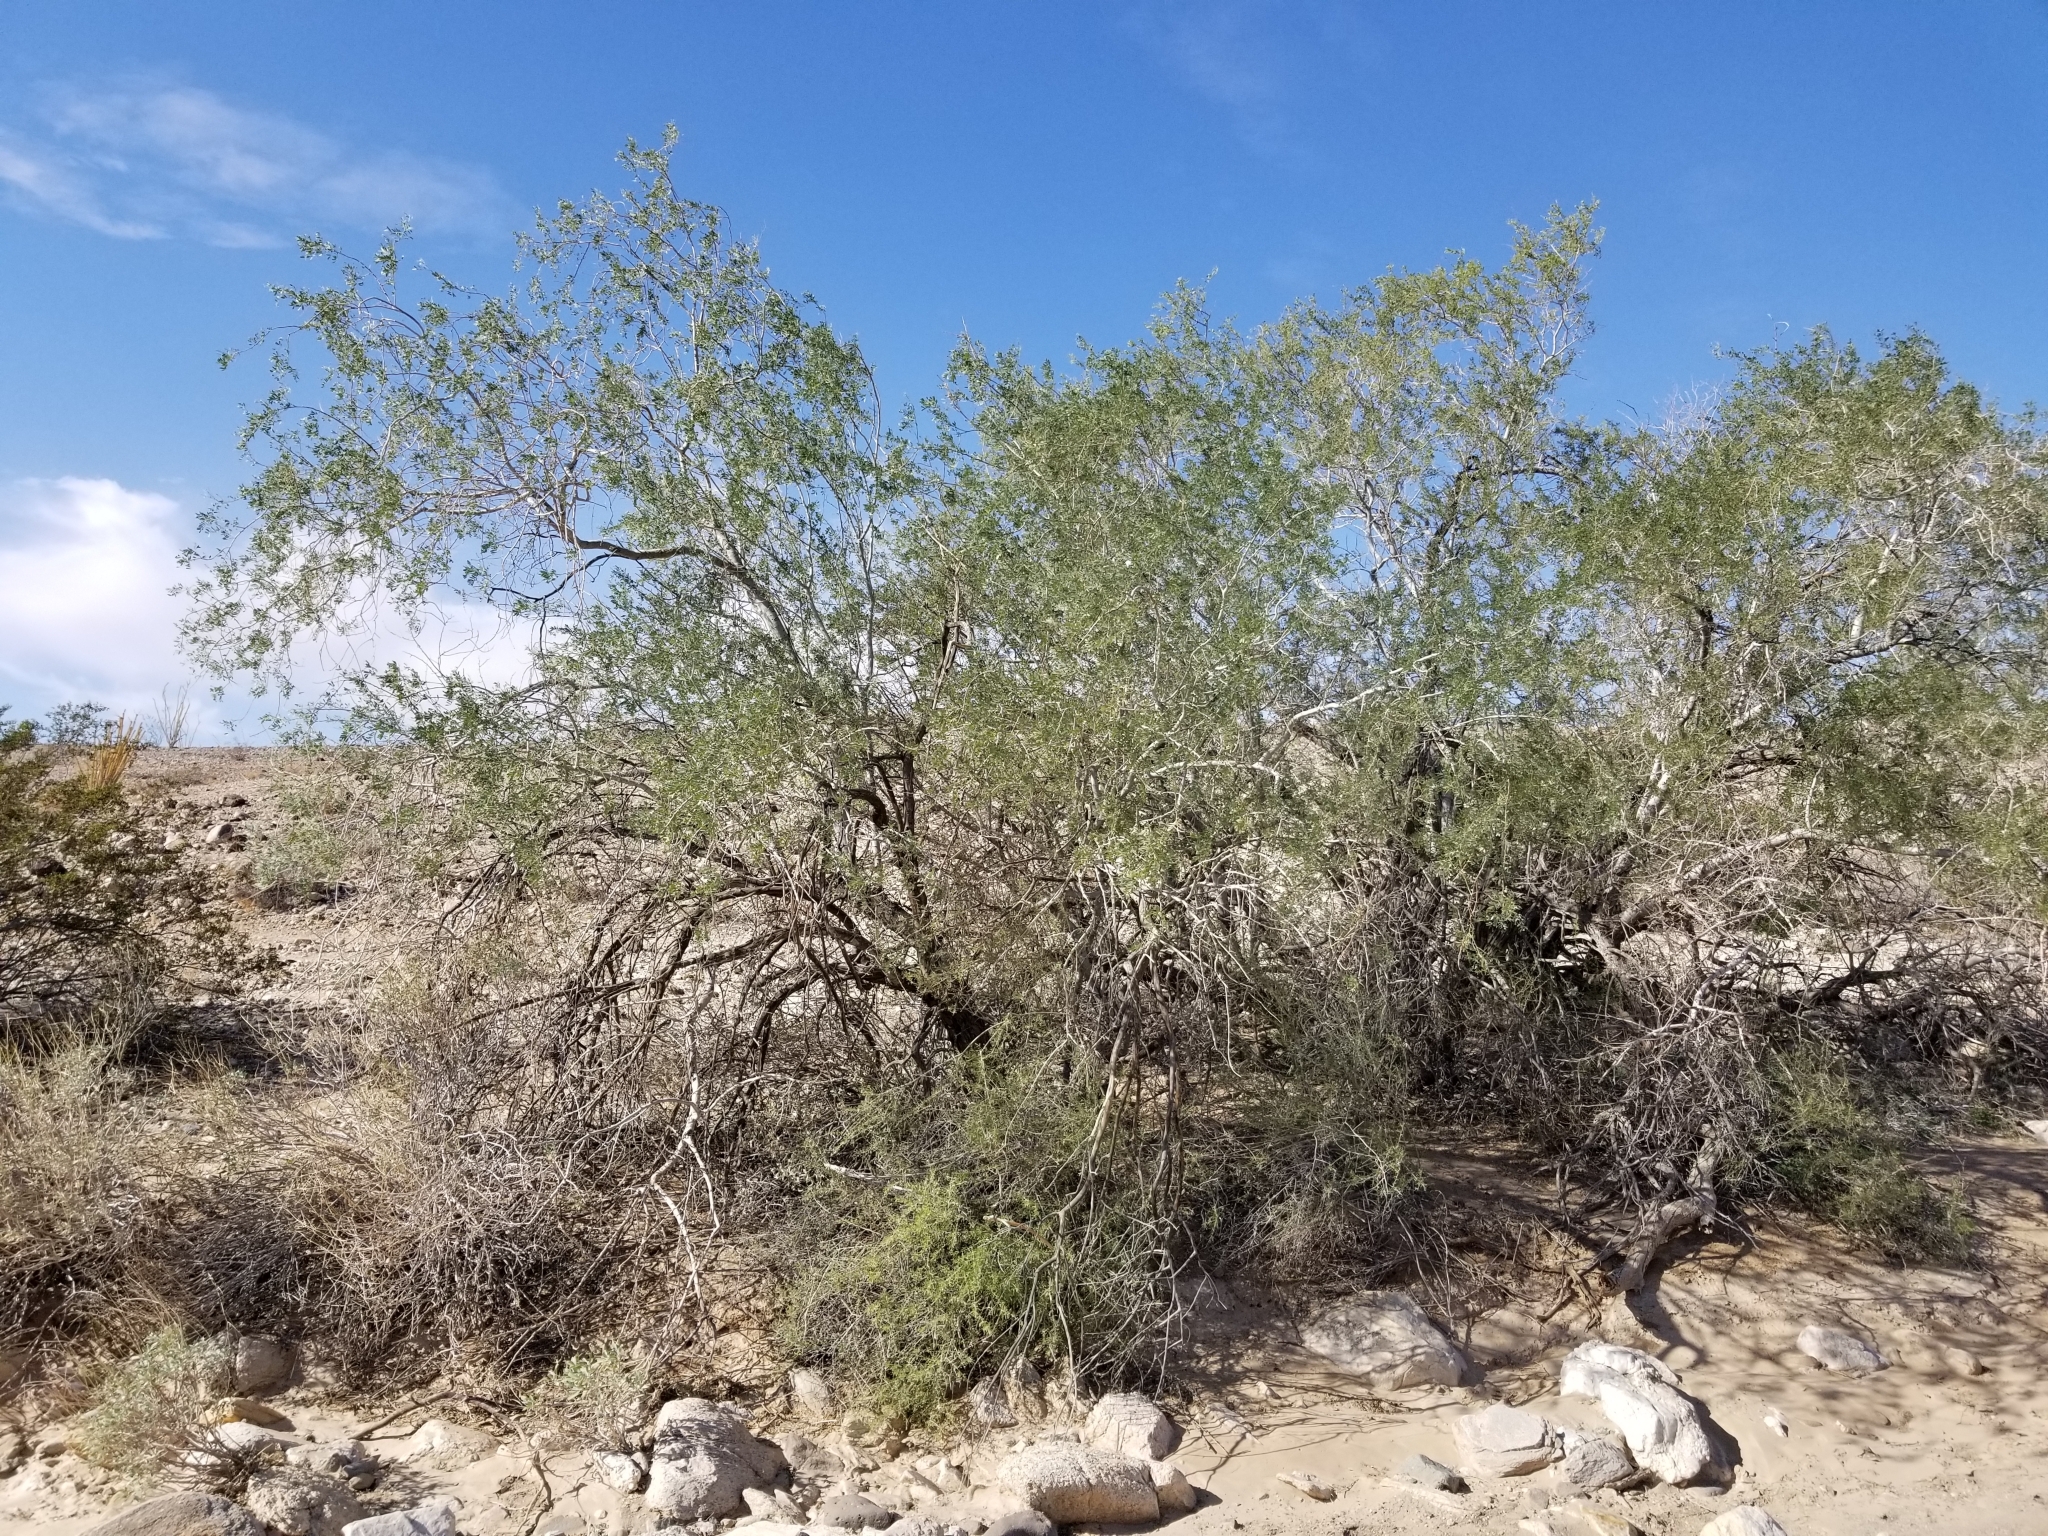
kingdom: Plantae
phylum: Tracheophyta
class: Magnoliopsida
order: Fabales
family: Fabaceae
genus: Olneya
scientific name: Olneya tesota
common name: Desert ironwood
